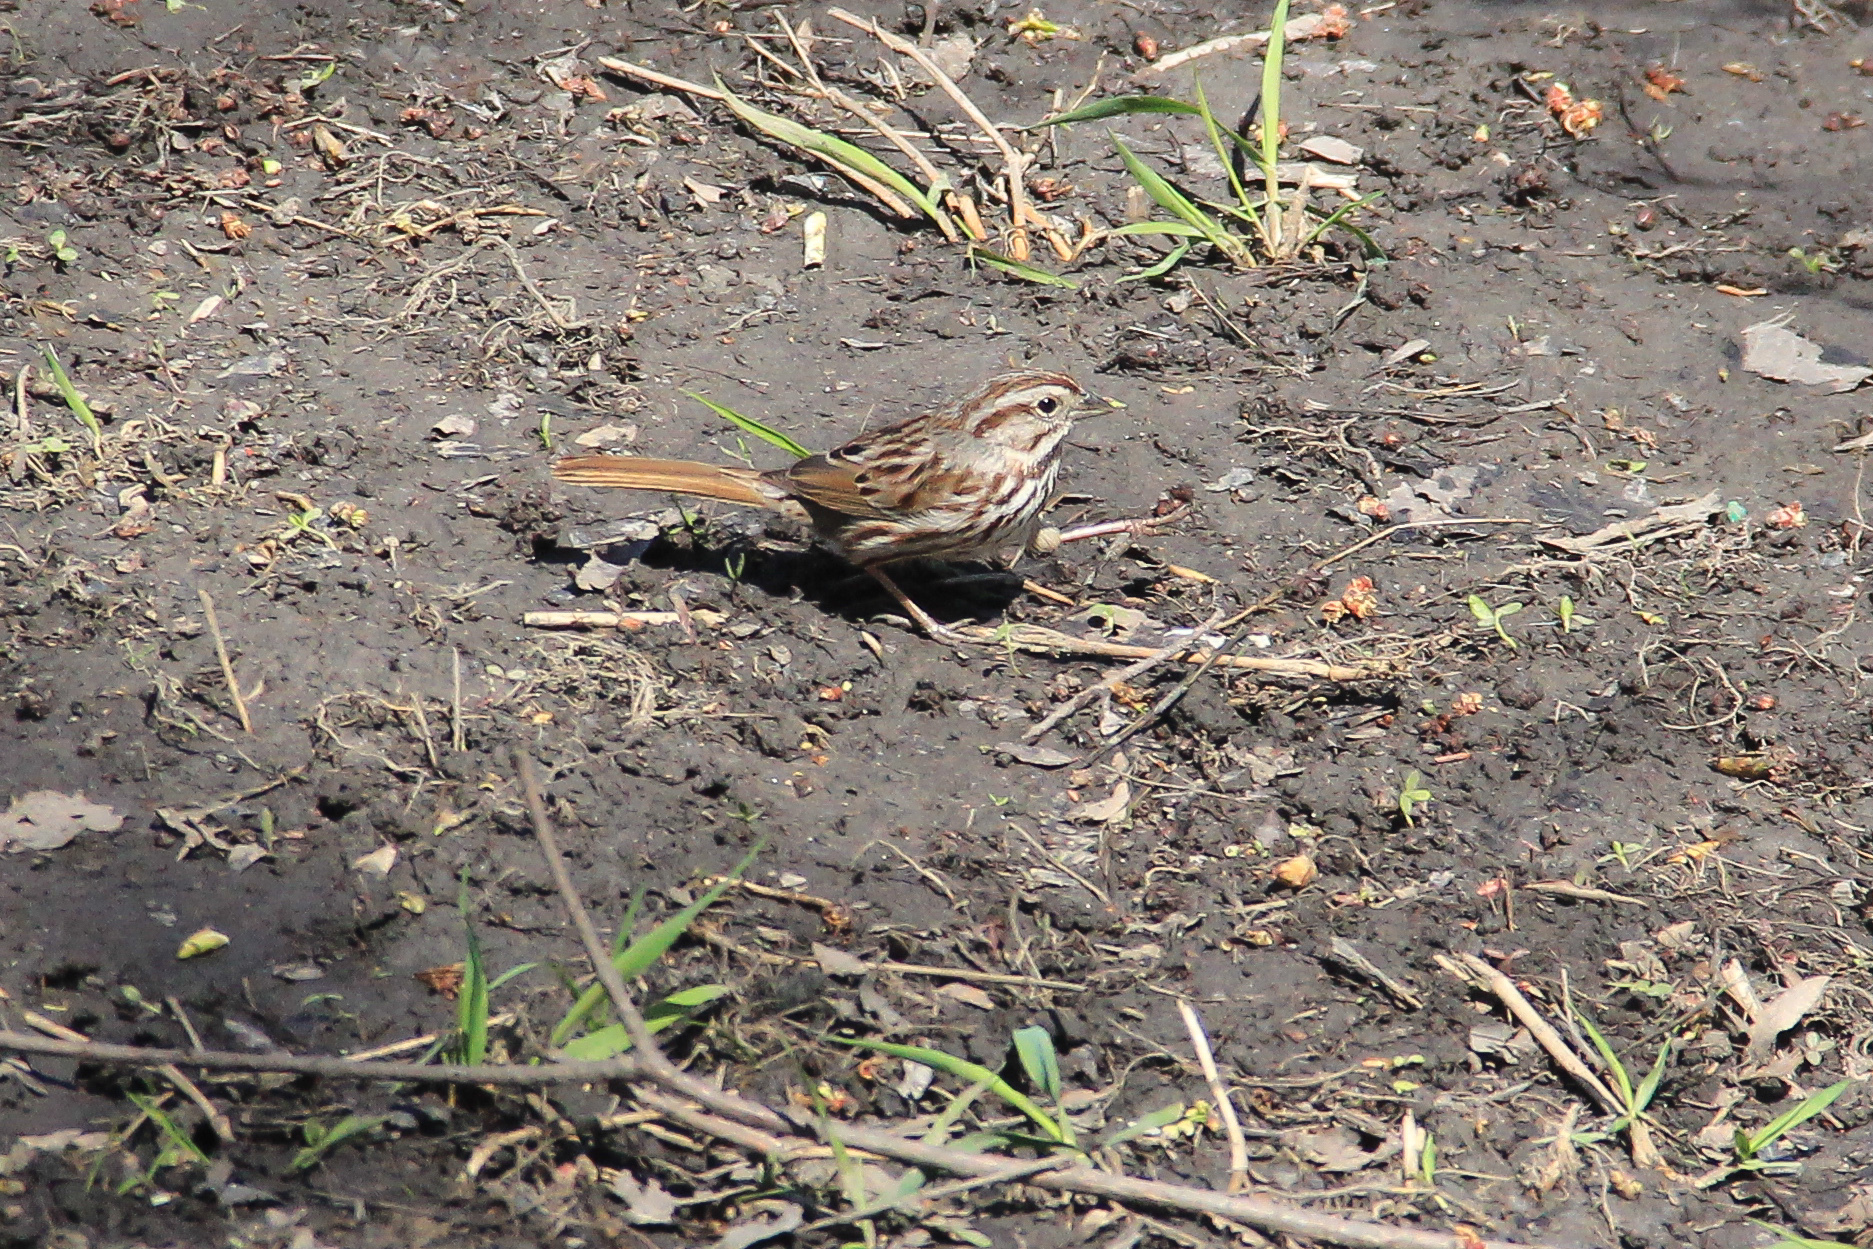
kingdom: Animalia
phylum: Chordata
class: Aves
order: Passeriformes
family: Passerellidae
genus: Melospiza
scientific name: Melospiza melodia
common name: Song sparrow
